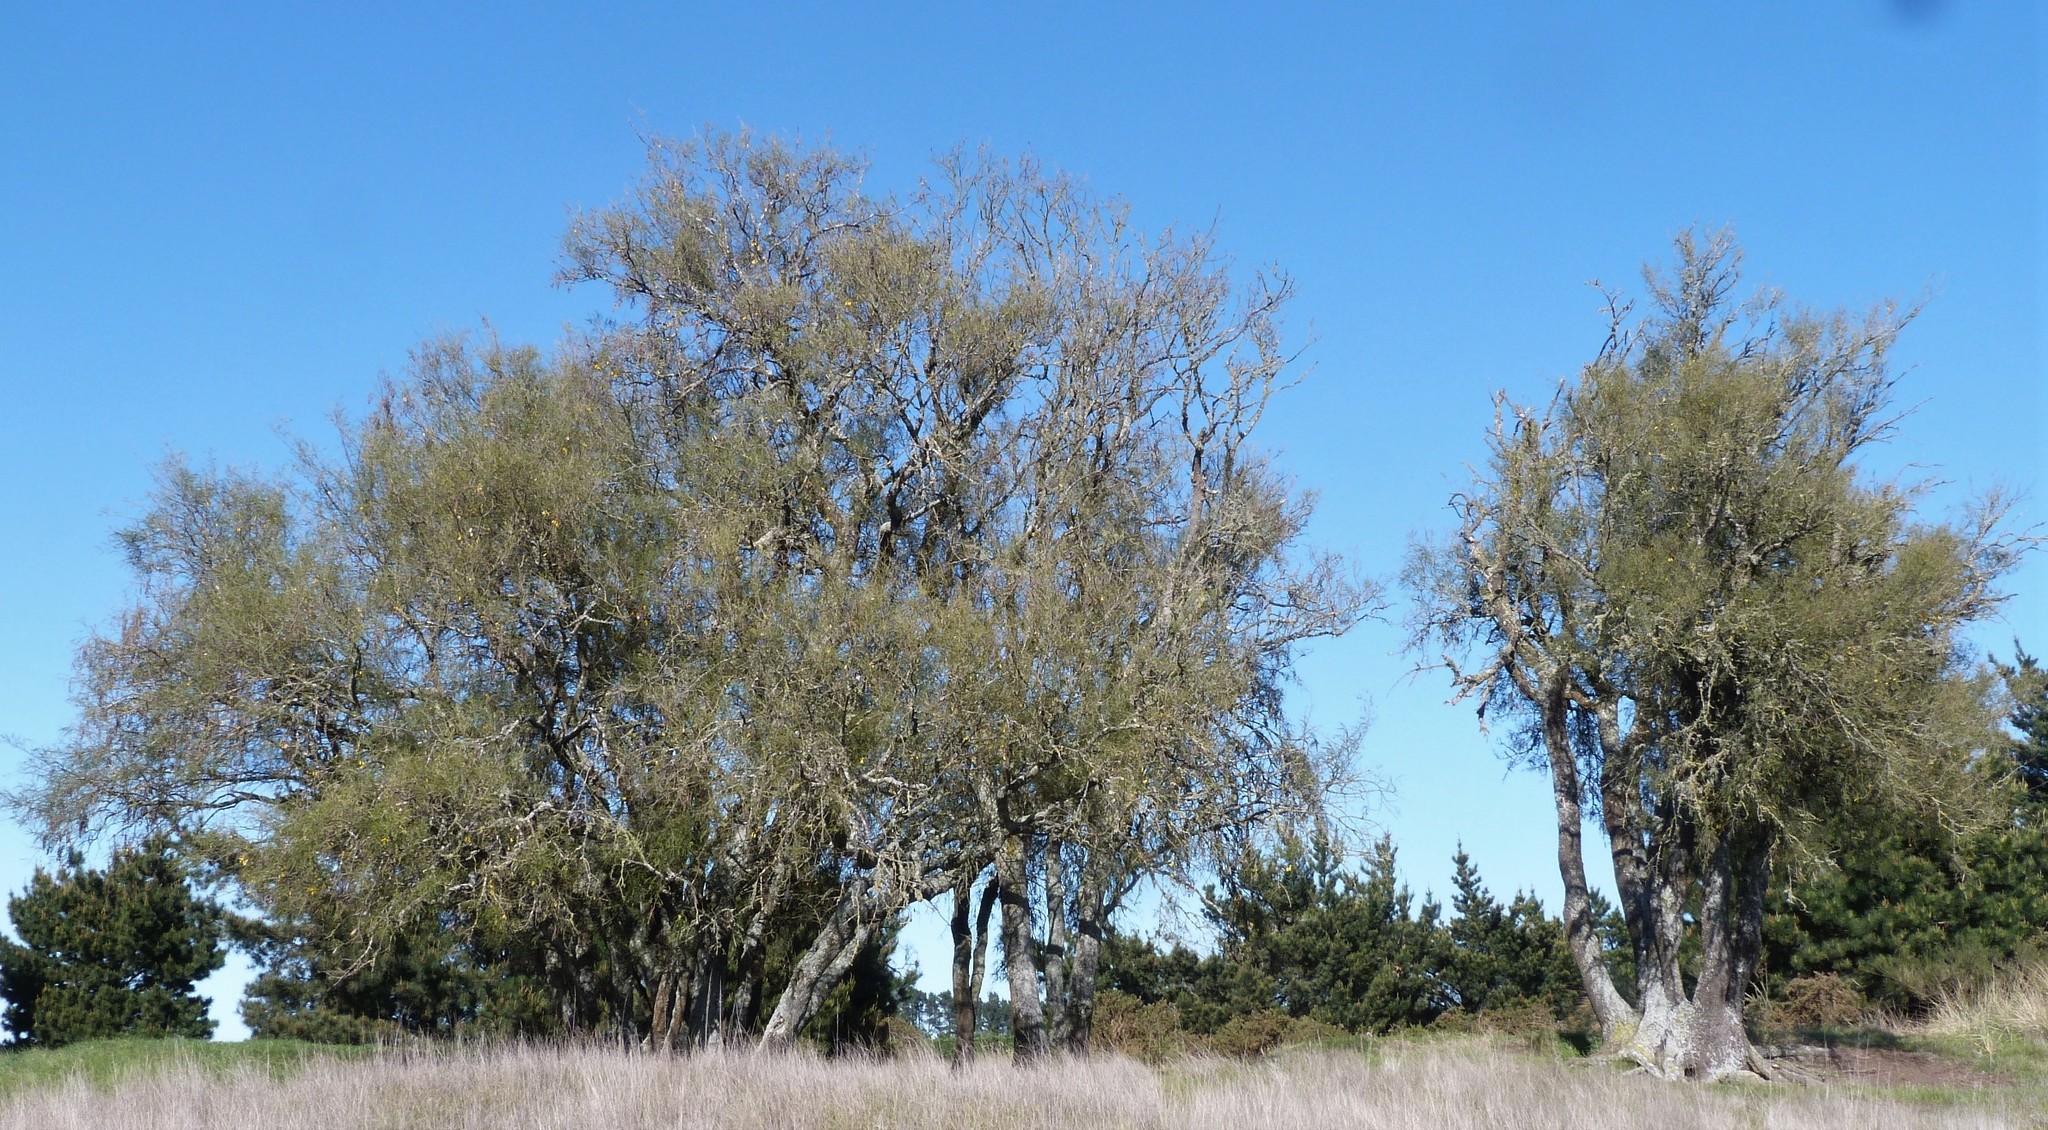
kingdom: Plantae
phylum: Tracheophyta
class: Magnoliopsida
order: Fabales
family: Fabaceae
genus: Sophora
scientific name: Sophora microphylla
